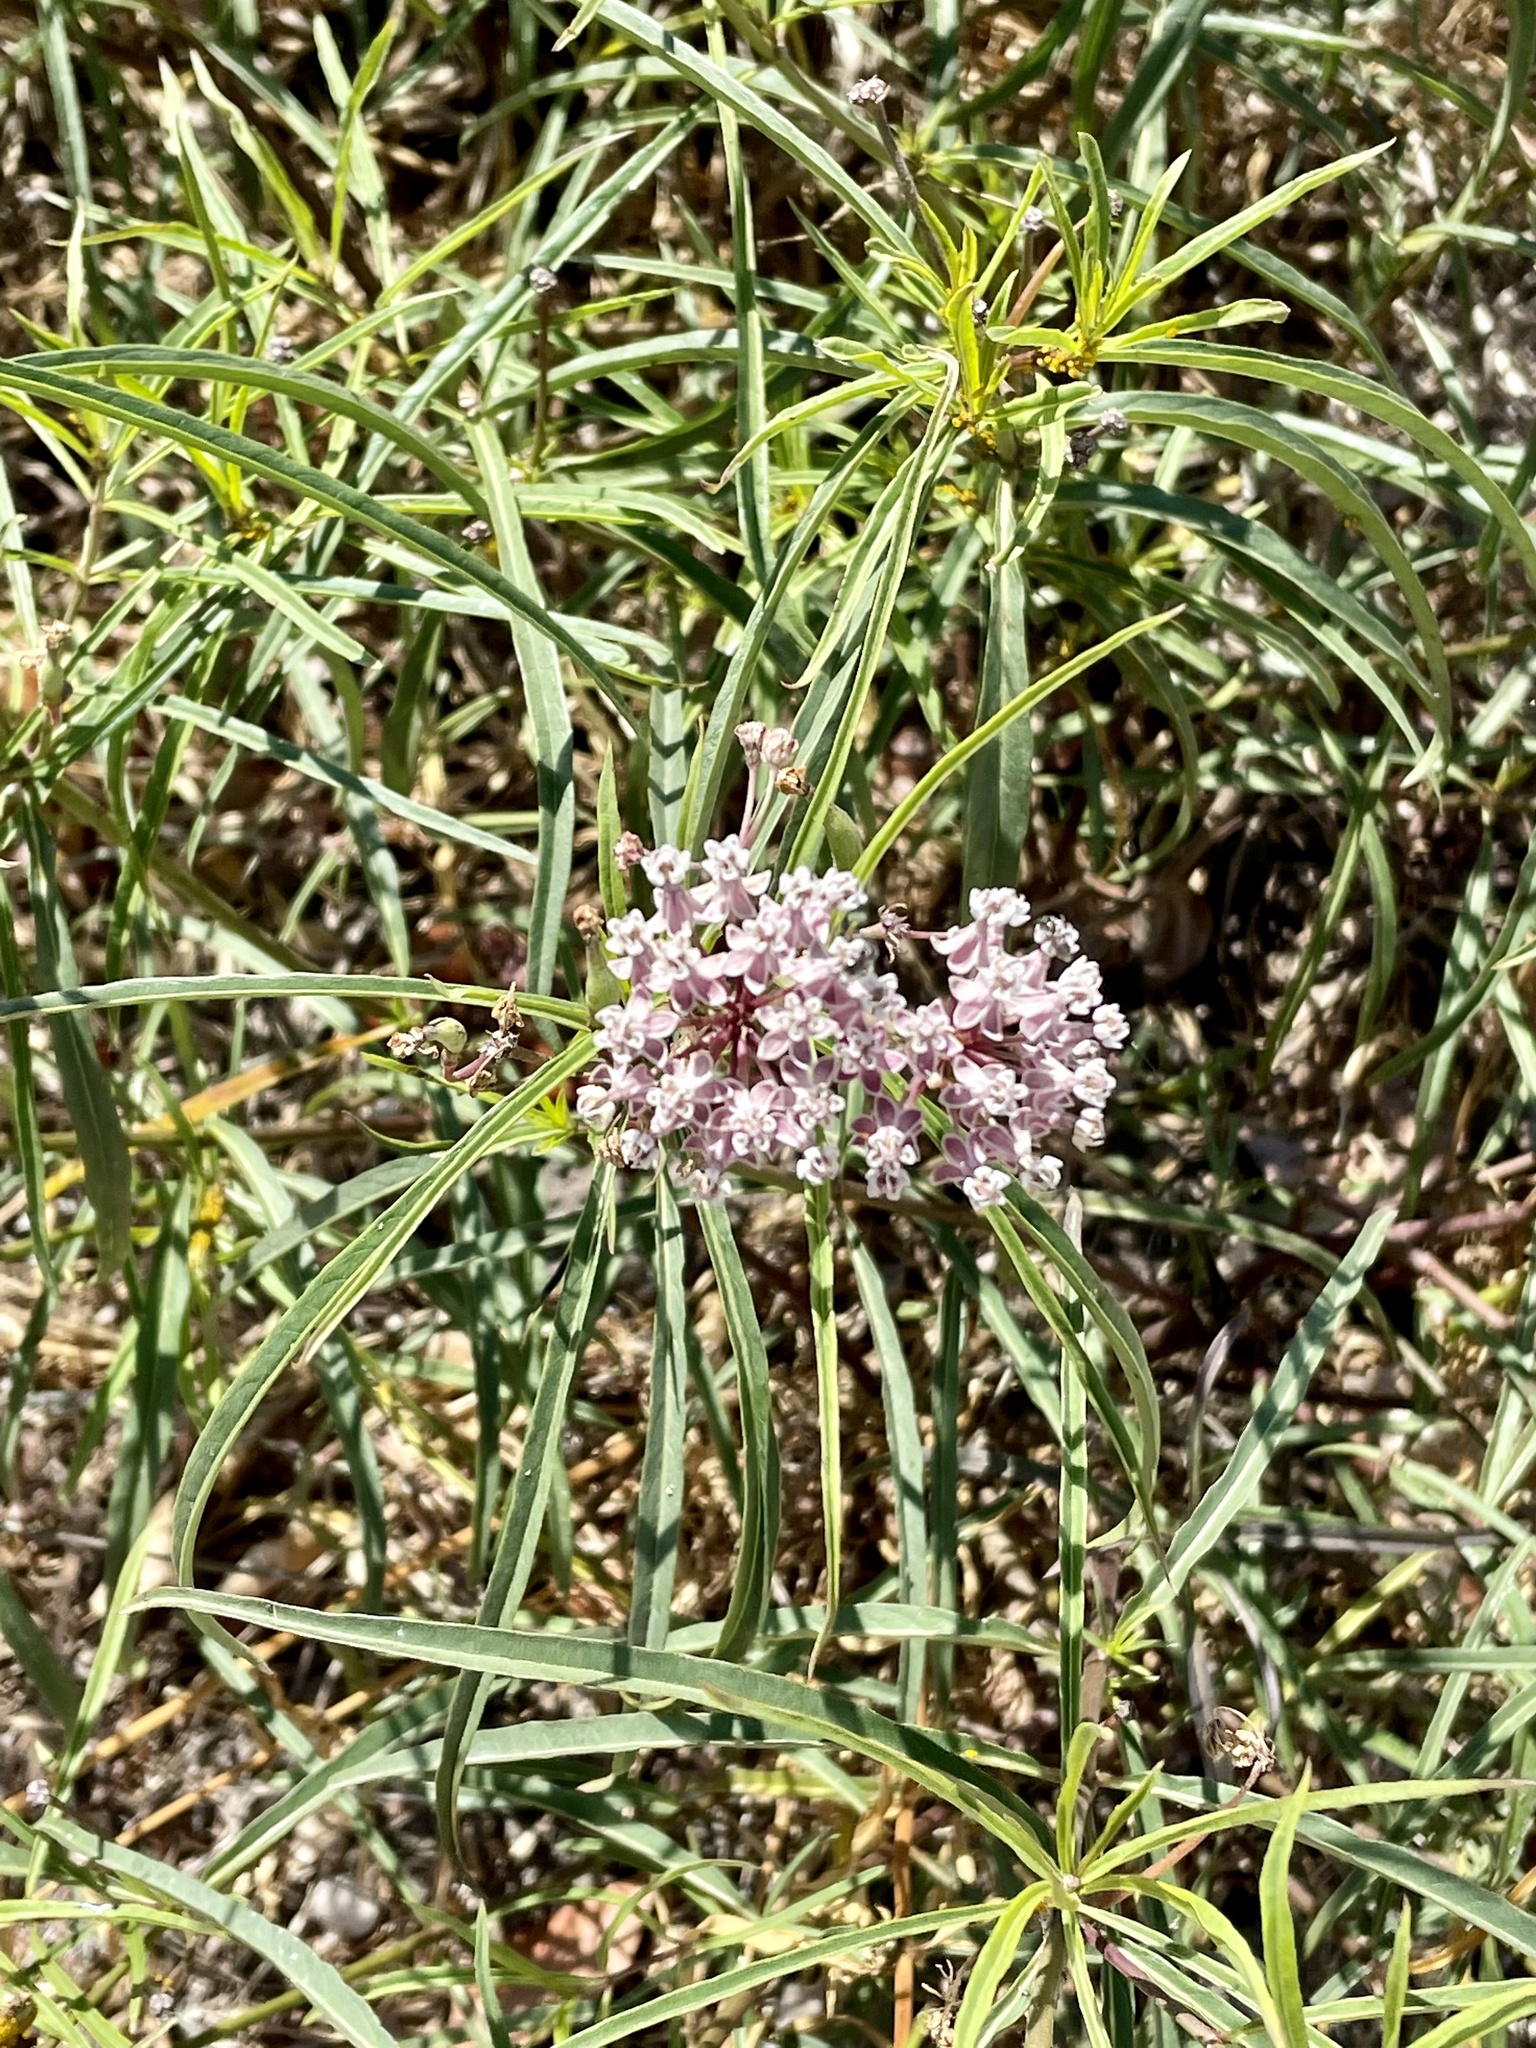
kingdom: Plantae
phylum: Tracheophyta
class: Magnoliopsida
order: Gentianales
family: Apocynaceae
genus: Asclepias
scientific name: Asclepias fascicularis
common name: Mexican milkweed
